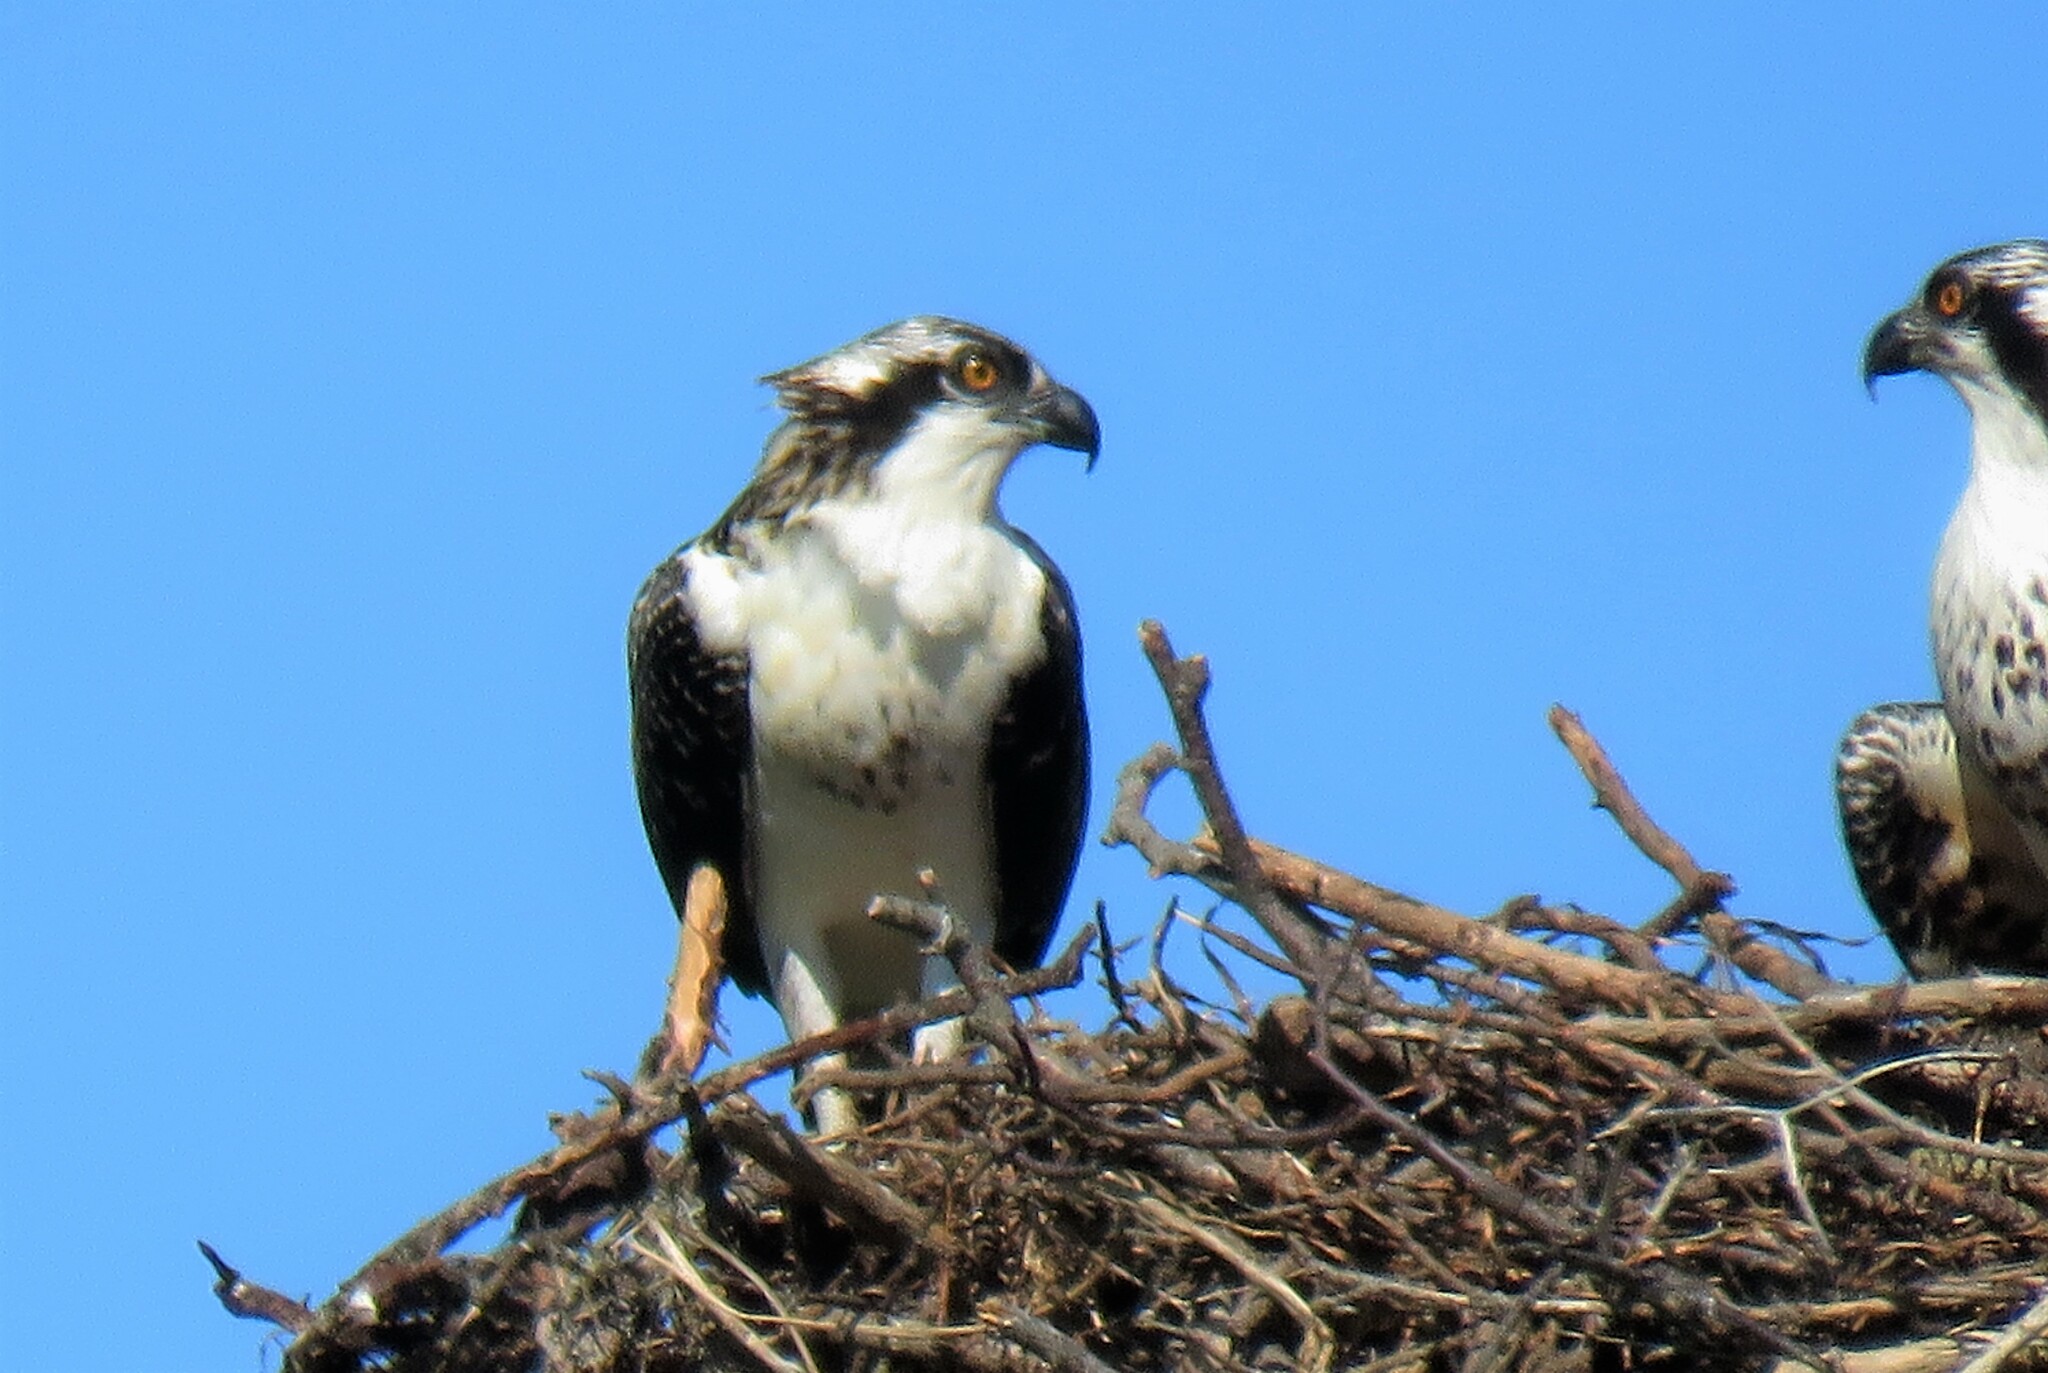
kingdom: Animalia
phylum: Chordata
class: Aves
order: Accipitriformes
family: Pandionidae
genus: Pandion
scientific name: Pandion haliaetus
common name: Osprey
